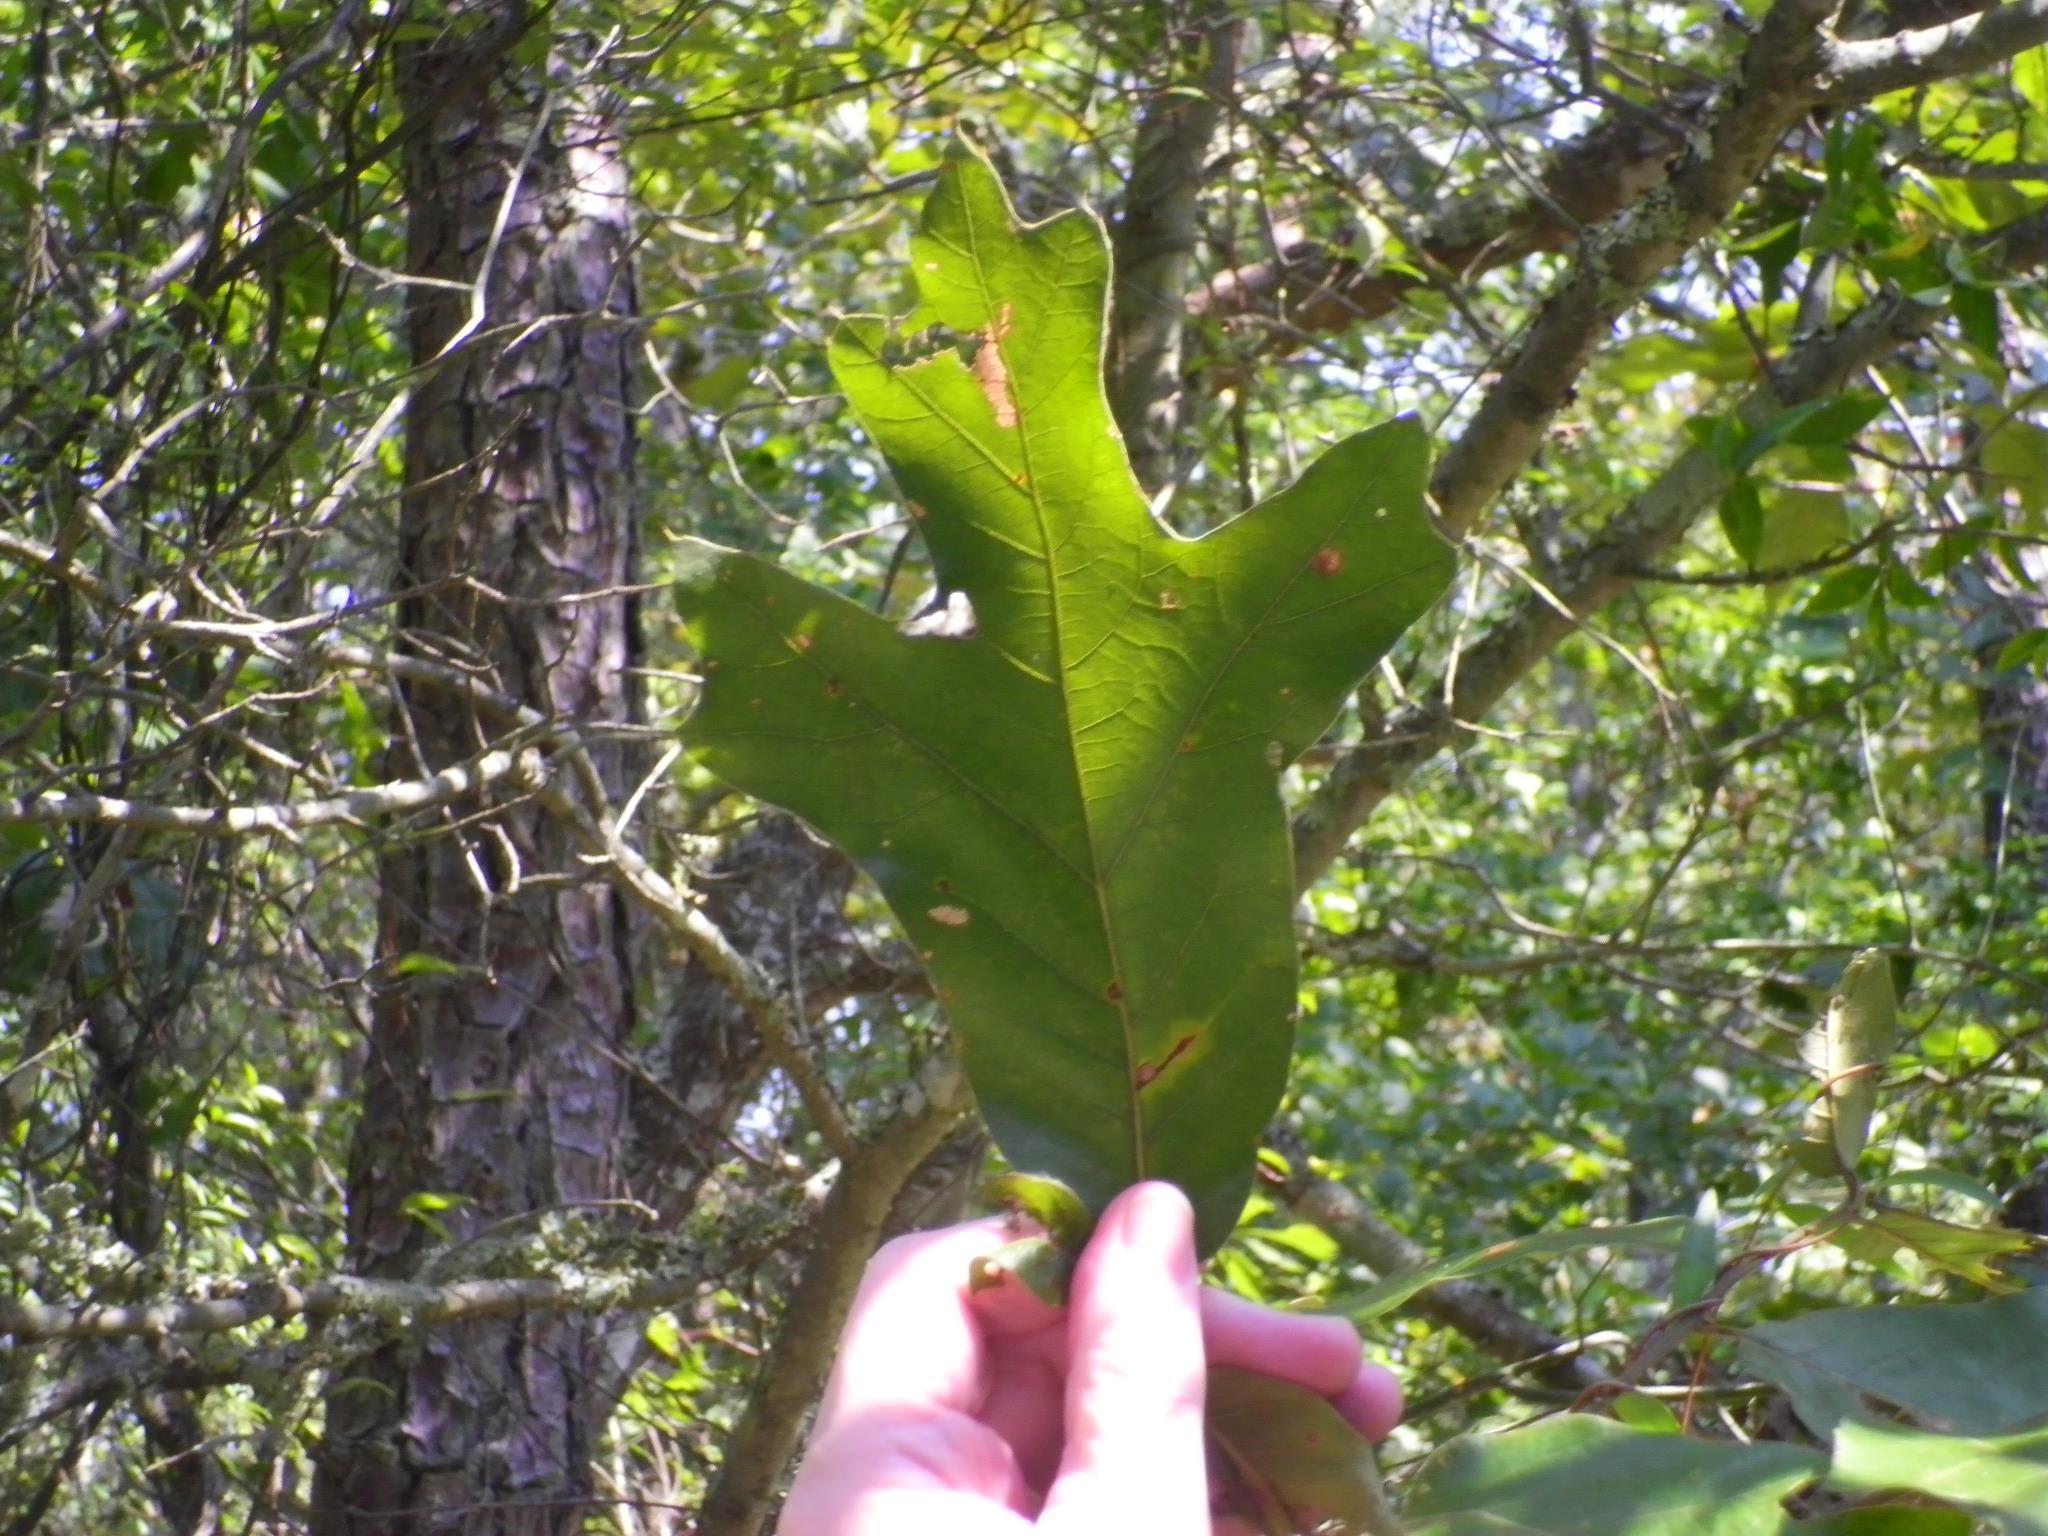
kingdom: Plantae
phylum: Tracheophyta
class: Magnoliopsida
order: Fagales
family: Fagaceae
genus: Quercus
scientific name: Quercus falcata
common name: Southern red oak
